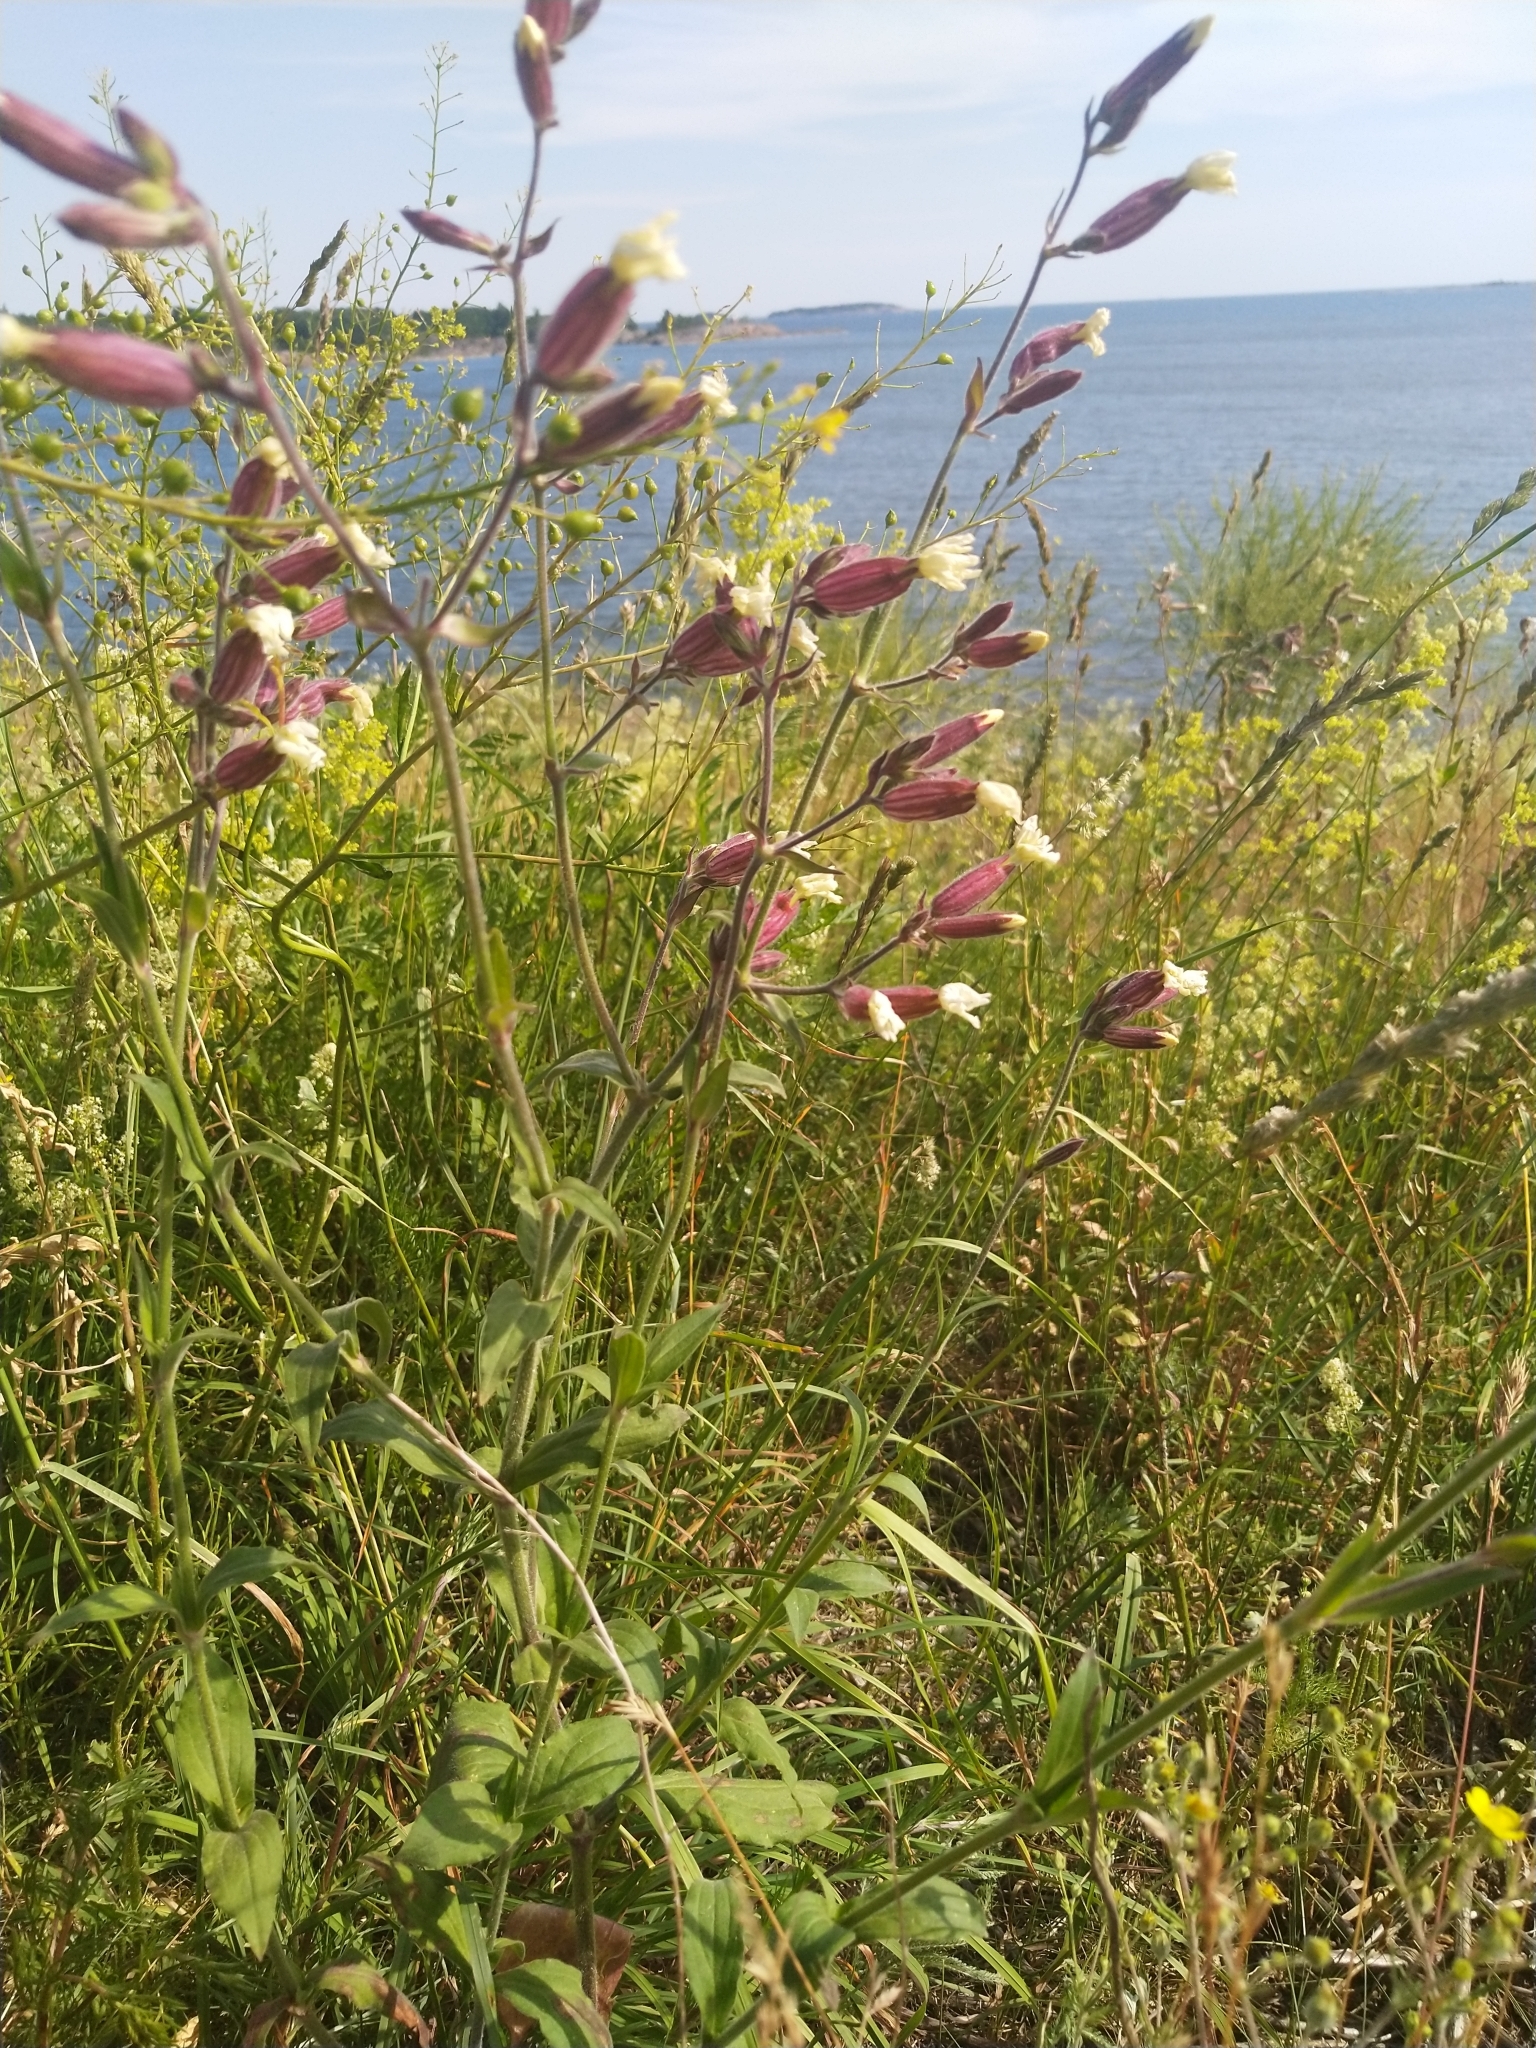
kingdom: Plantae
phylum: Tracheophyta
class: Magnoliopsida
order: Caryophyllales
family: Caryophyllaceae
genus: Silene
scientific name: Silene latifolia
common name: White campion
